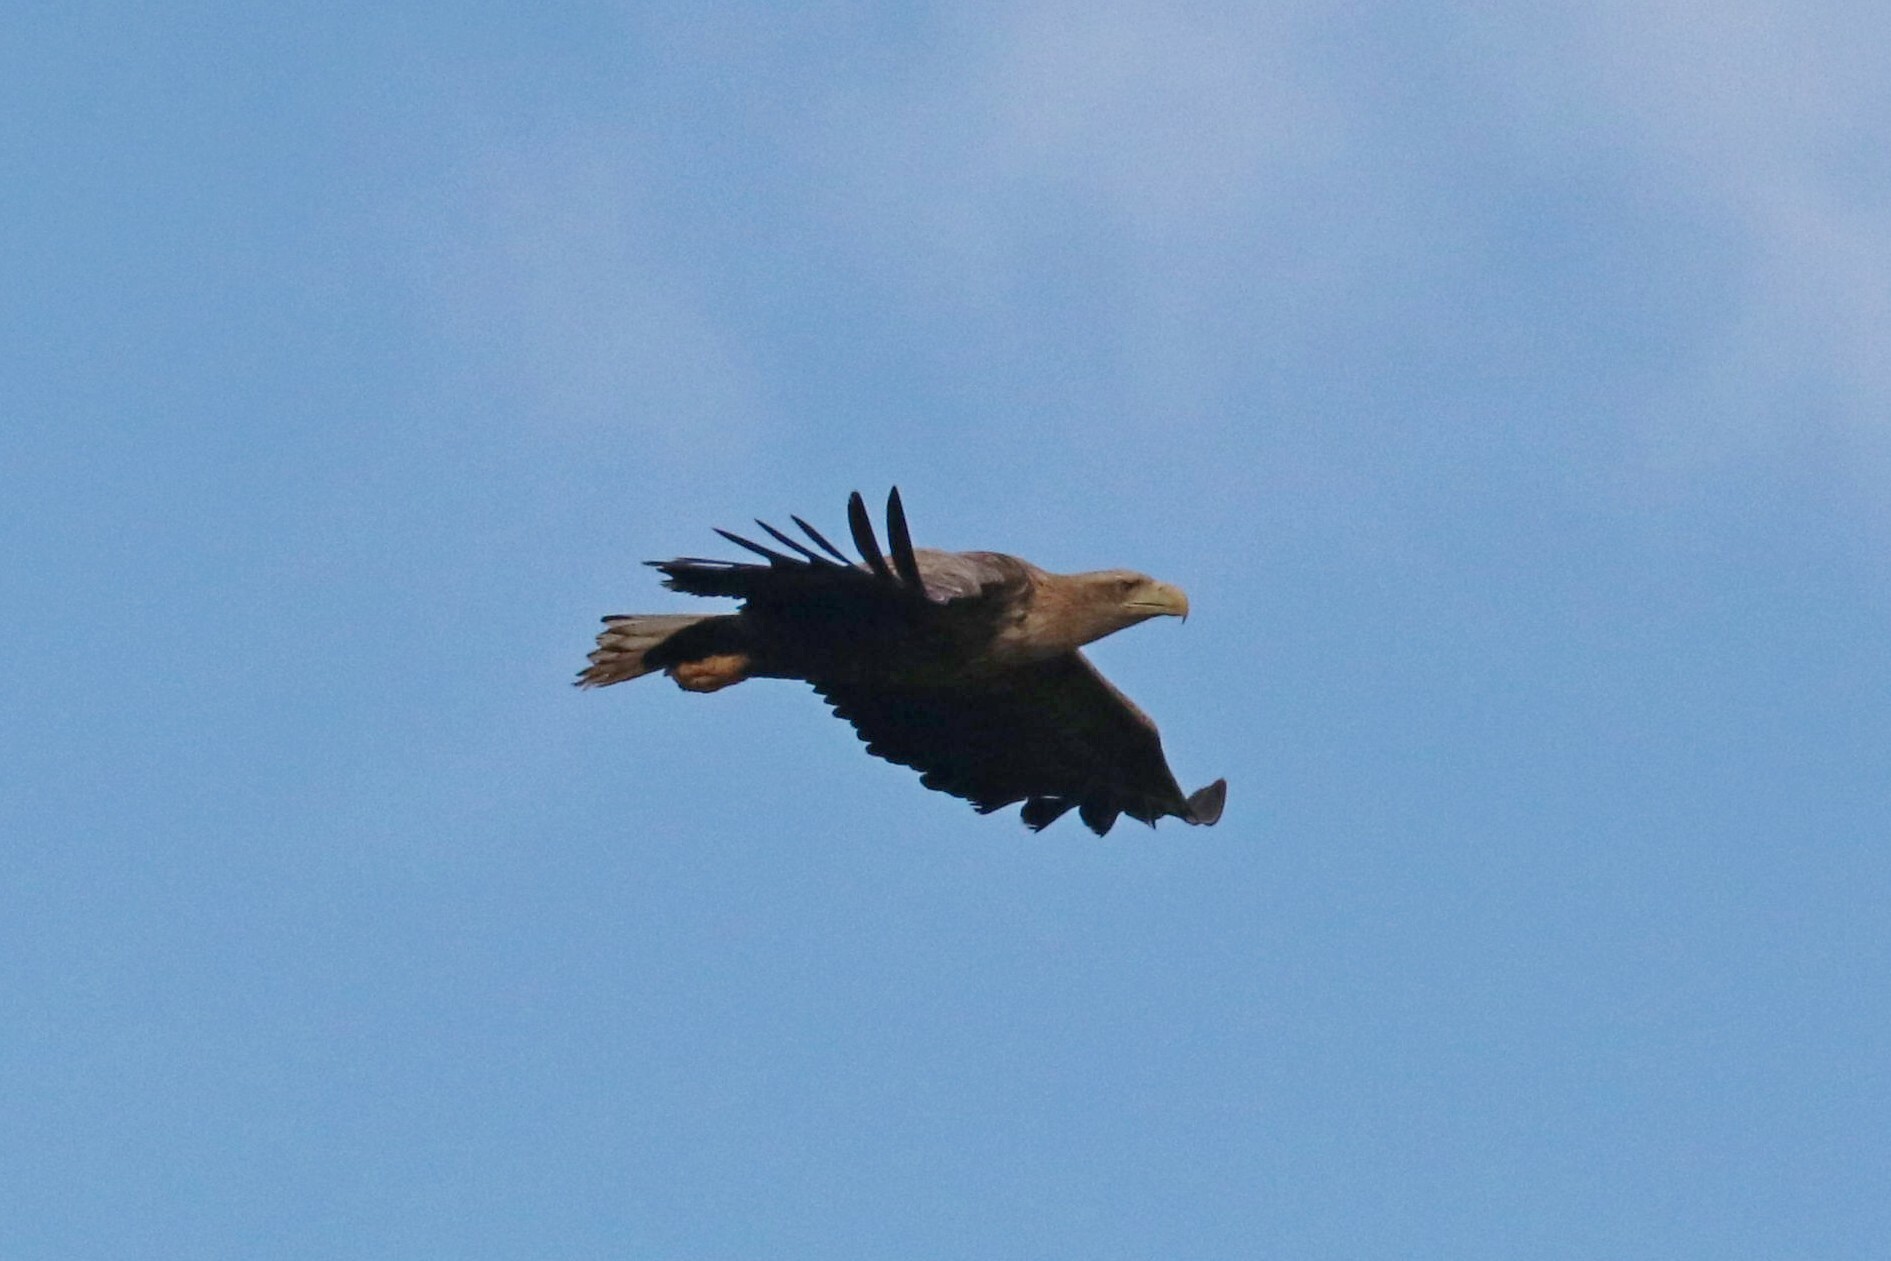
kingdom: Animalia
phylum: Chordata
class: Aves
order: Accipitriformes
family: Accipitridae
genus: Haliaeetus
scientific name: Haliaeetus albicilla
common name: White-tailed eagle
